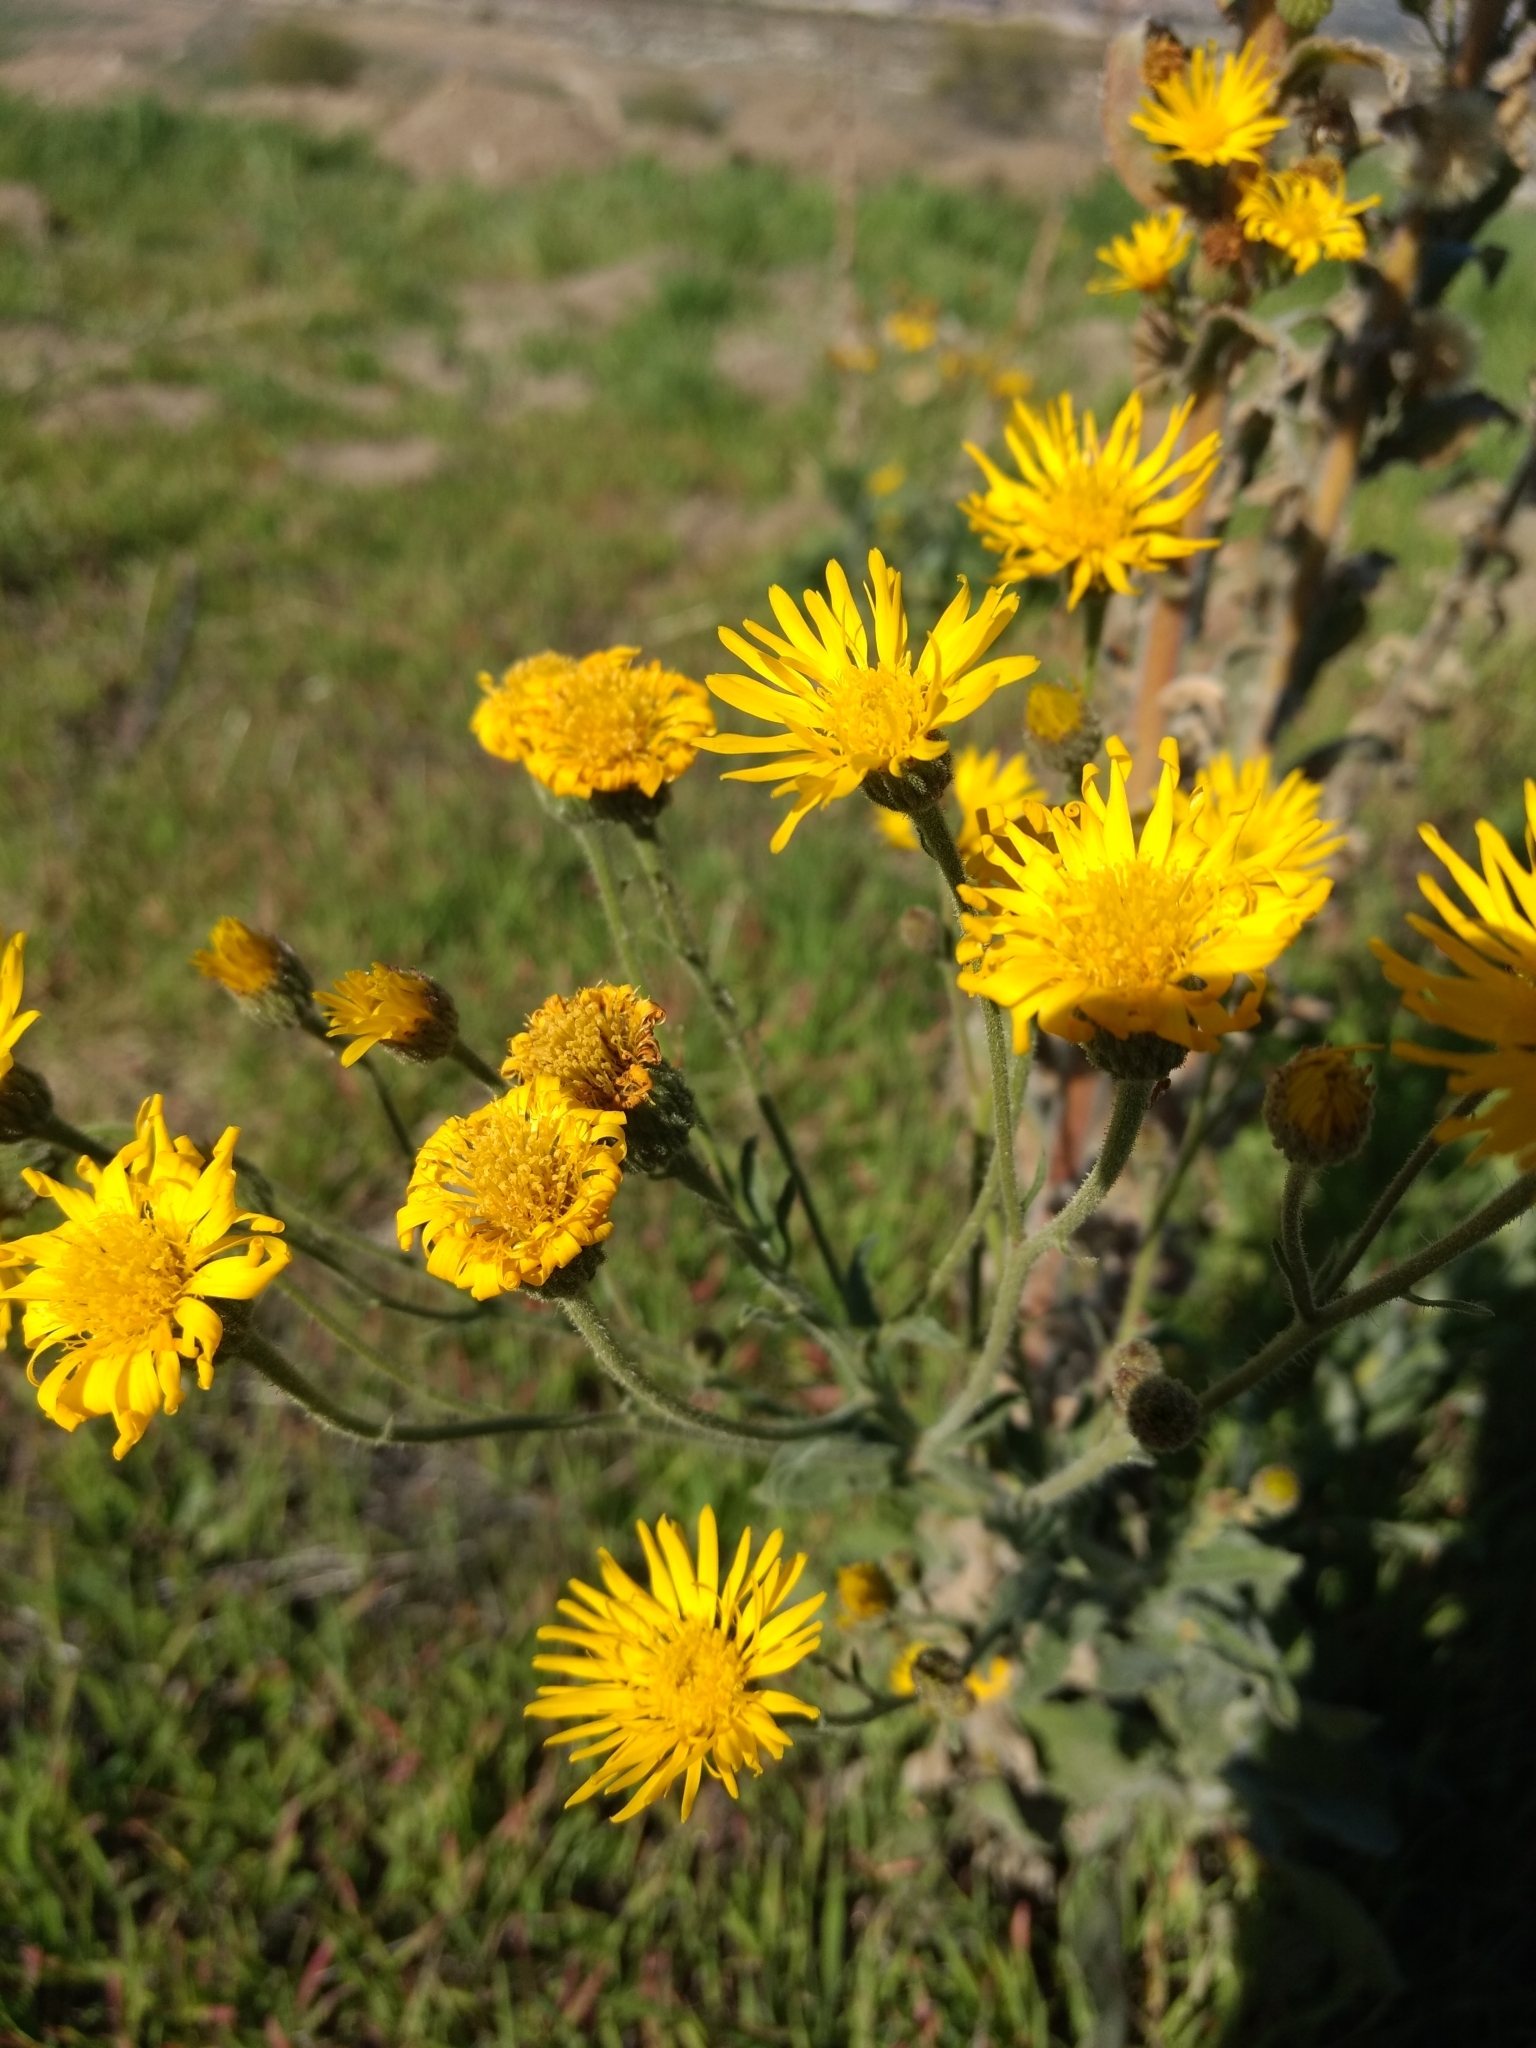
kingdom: Plantae
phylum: Tracheophyta
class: Magnoliopsida
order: Asterales
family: Asteraceae
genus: Heterotheca
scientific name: Heterotheca grandiflora
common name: Telegraphweed
